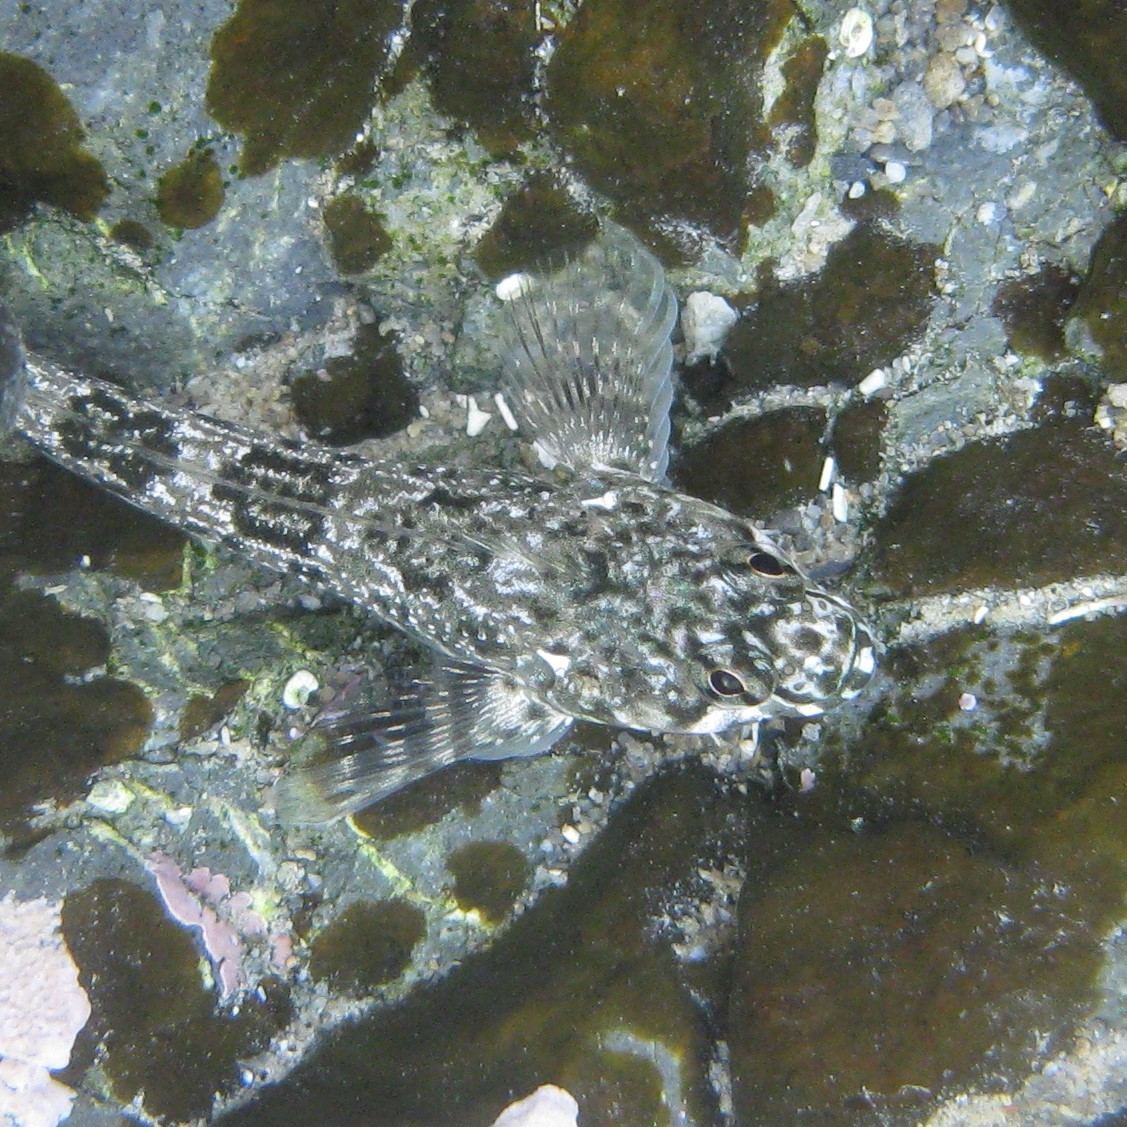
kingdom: Animalia
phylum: Chordata
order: Perciformes
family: Tripterygiidae
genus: Bellapiscis
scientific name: Bellapiscis medius
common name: Twister
